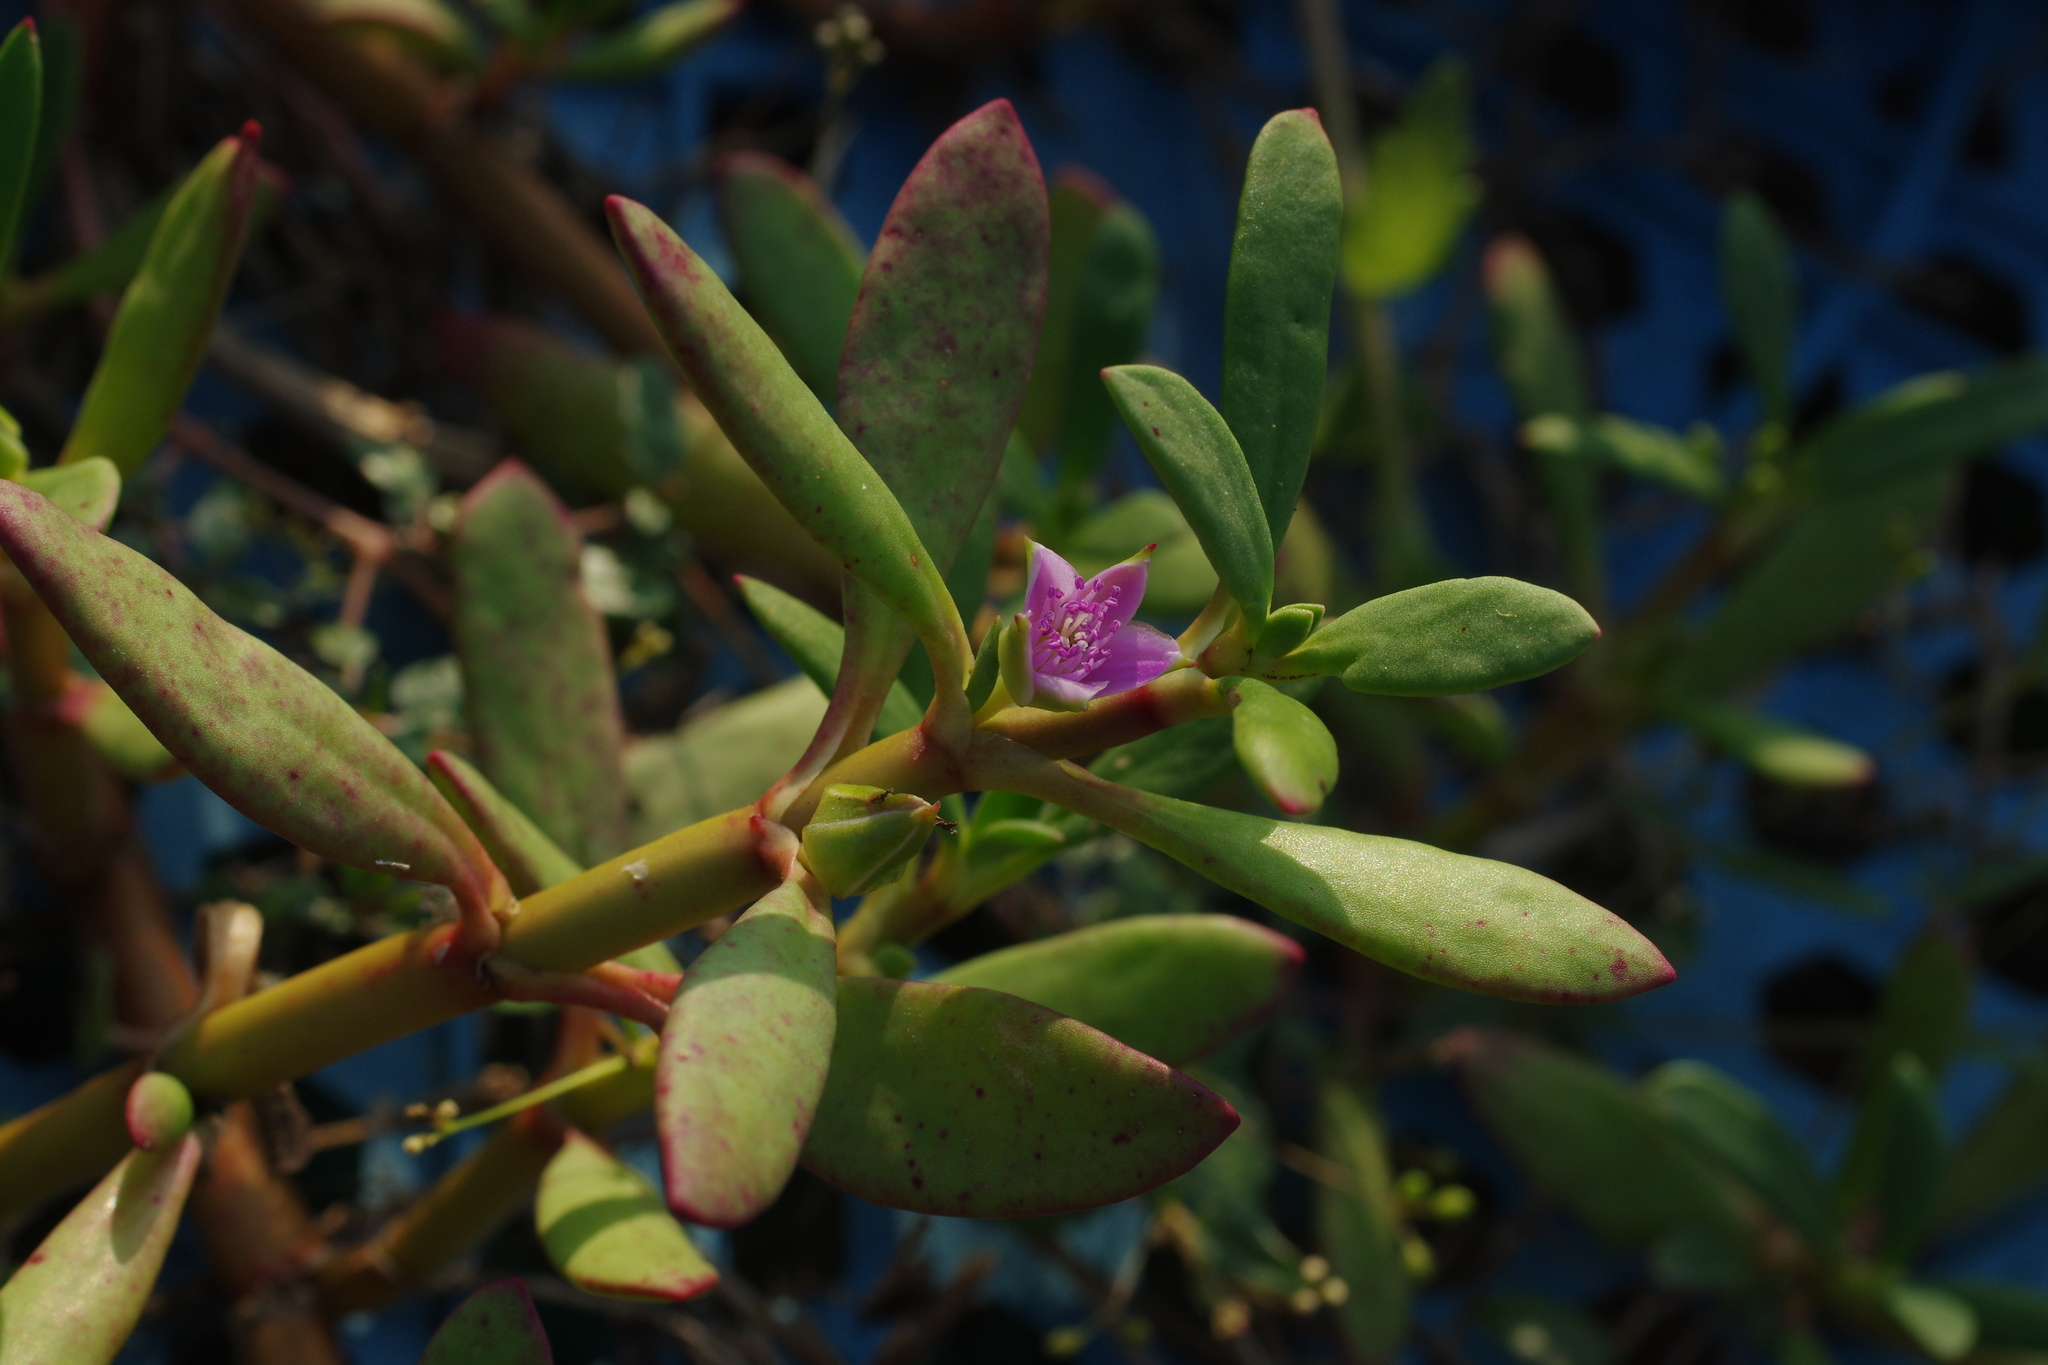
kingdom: Plantae
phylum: Tracheophyta
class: Magnoliopsida
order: Caryophyllales
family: Aizoaceae
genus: Sesuvium
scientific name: Sesuvium portulacastrum
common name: Sea-purslane
